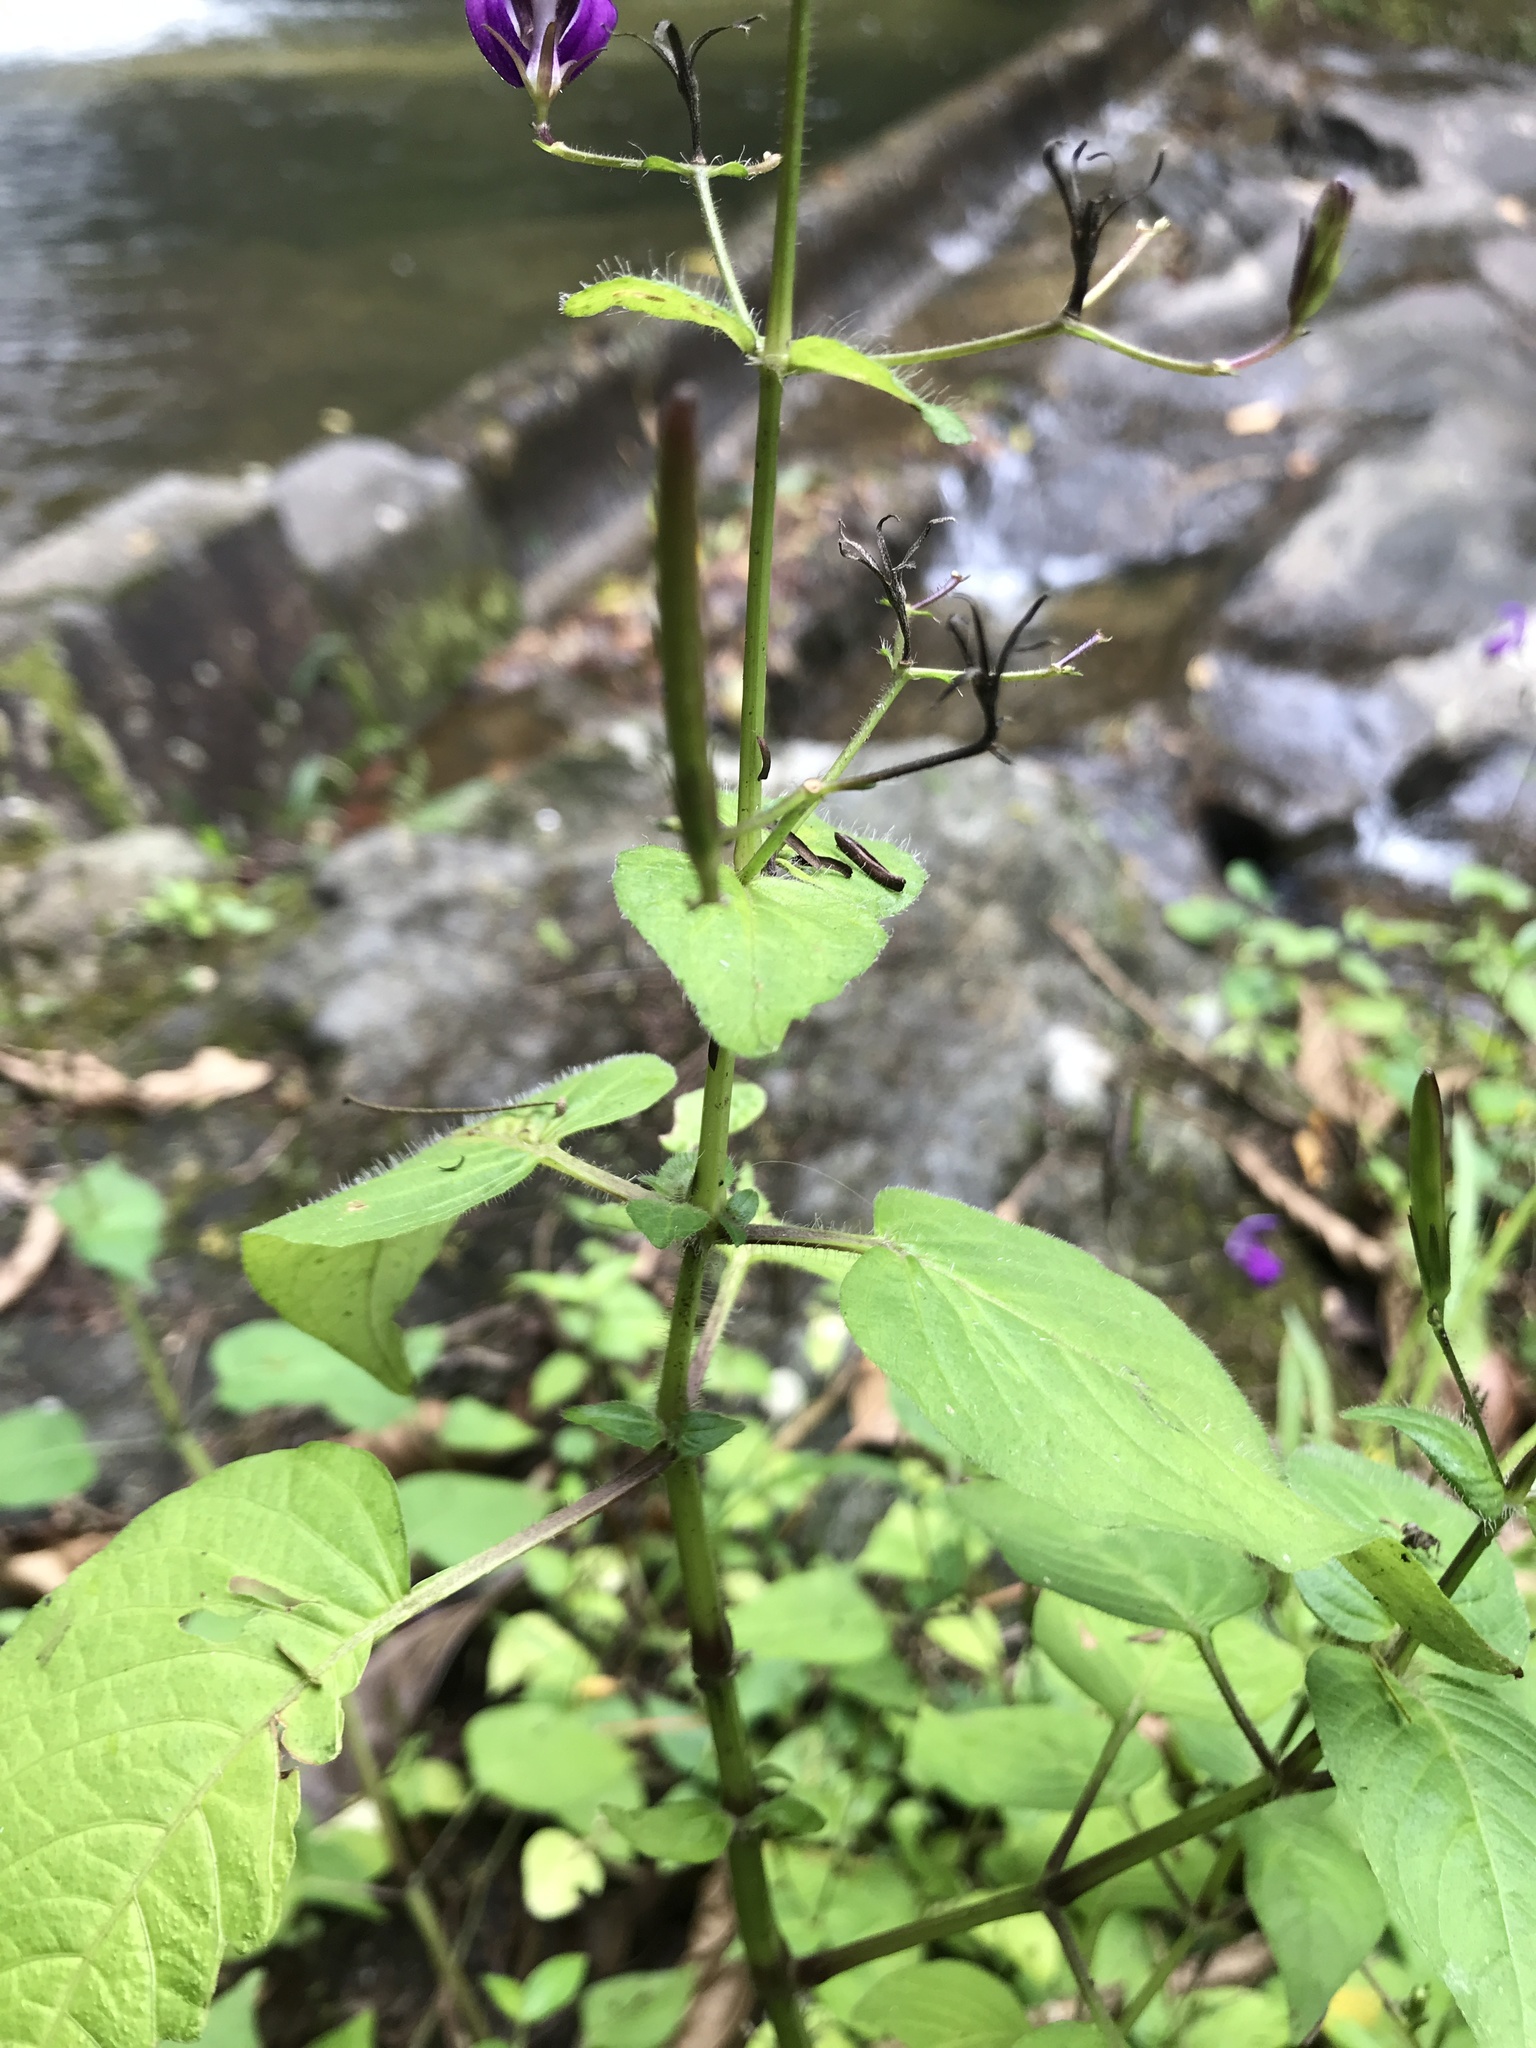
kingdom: Plantae
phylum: Tracheophyta
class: Magnoliopsida
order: Lamiales
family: Acanthaceae
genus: Brillantaisia
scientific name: Brillantaisia lamium
